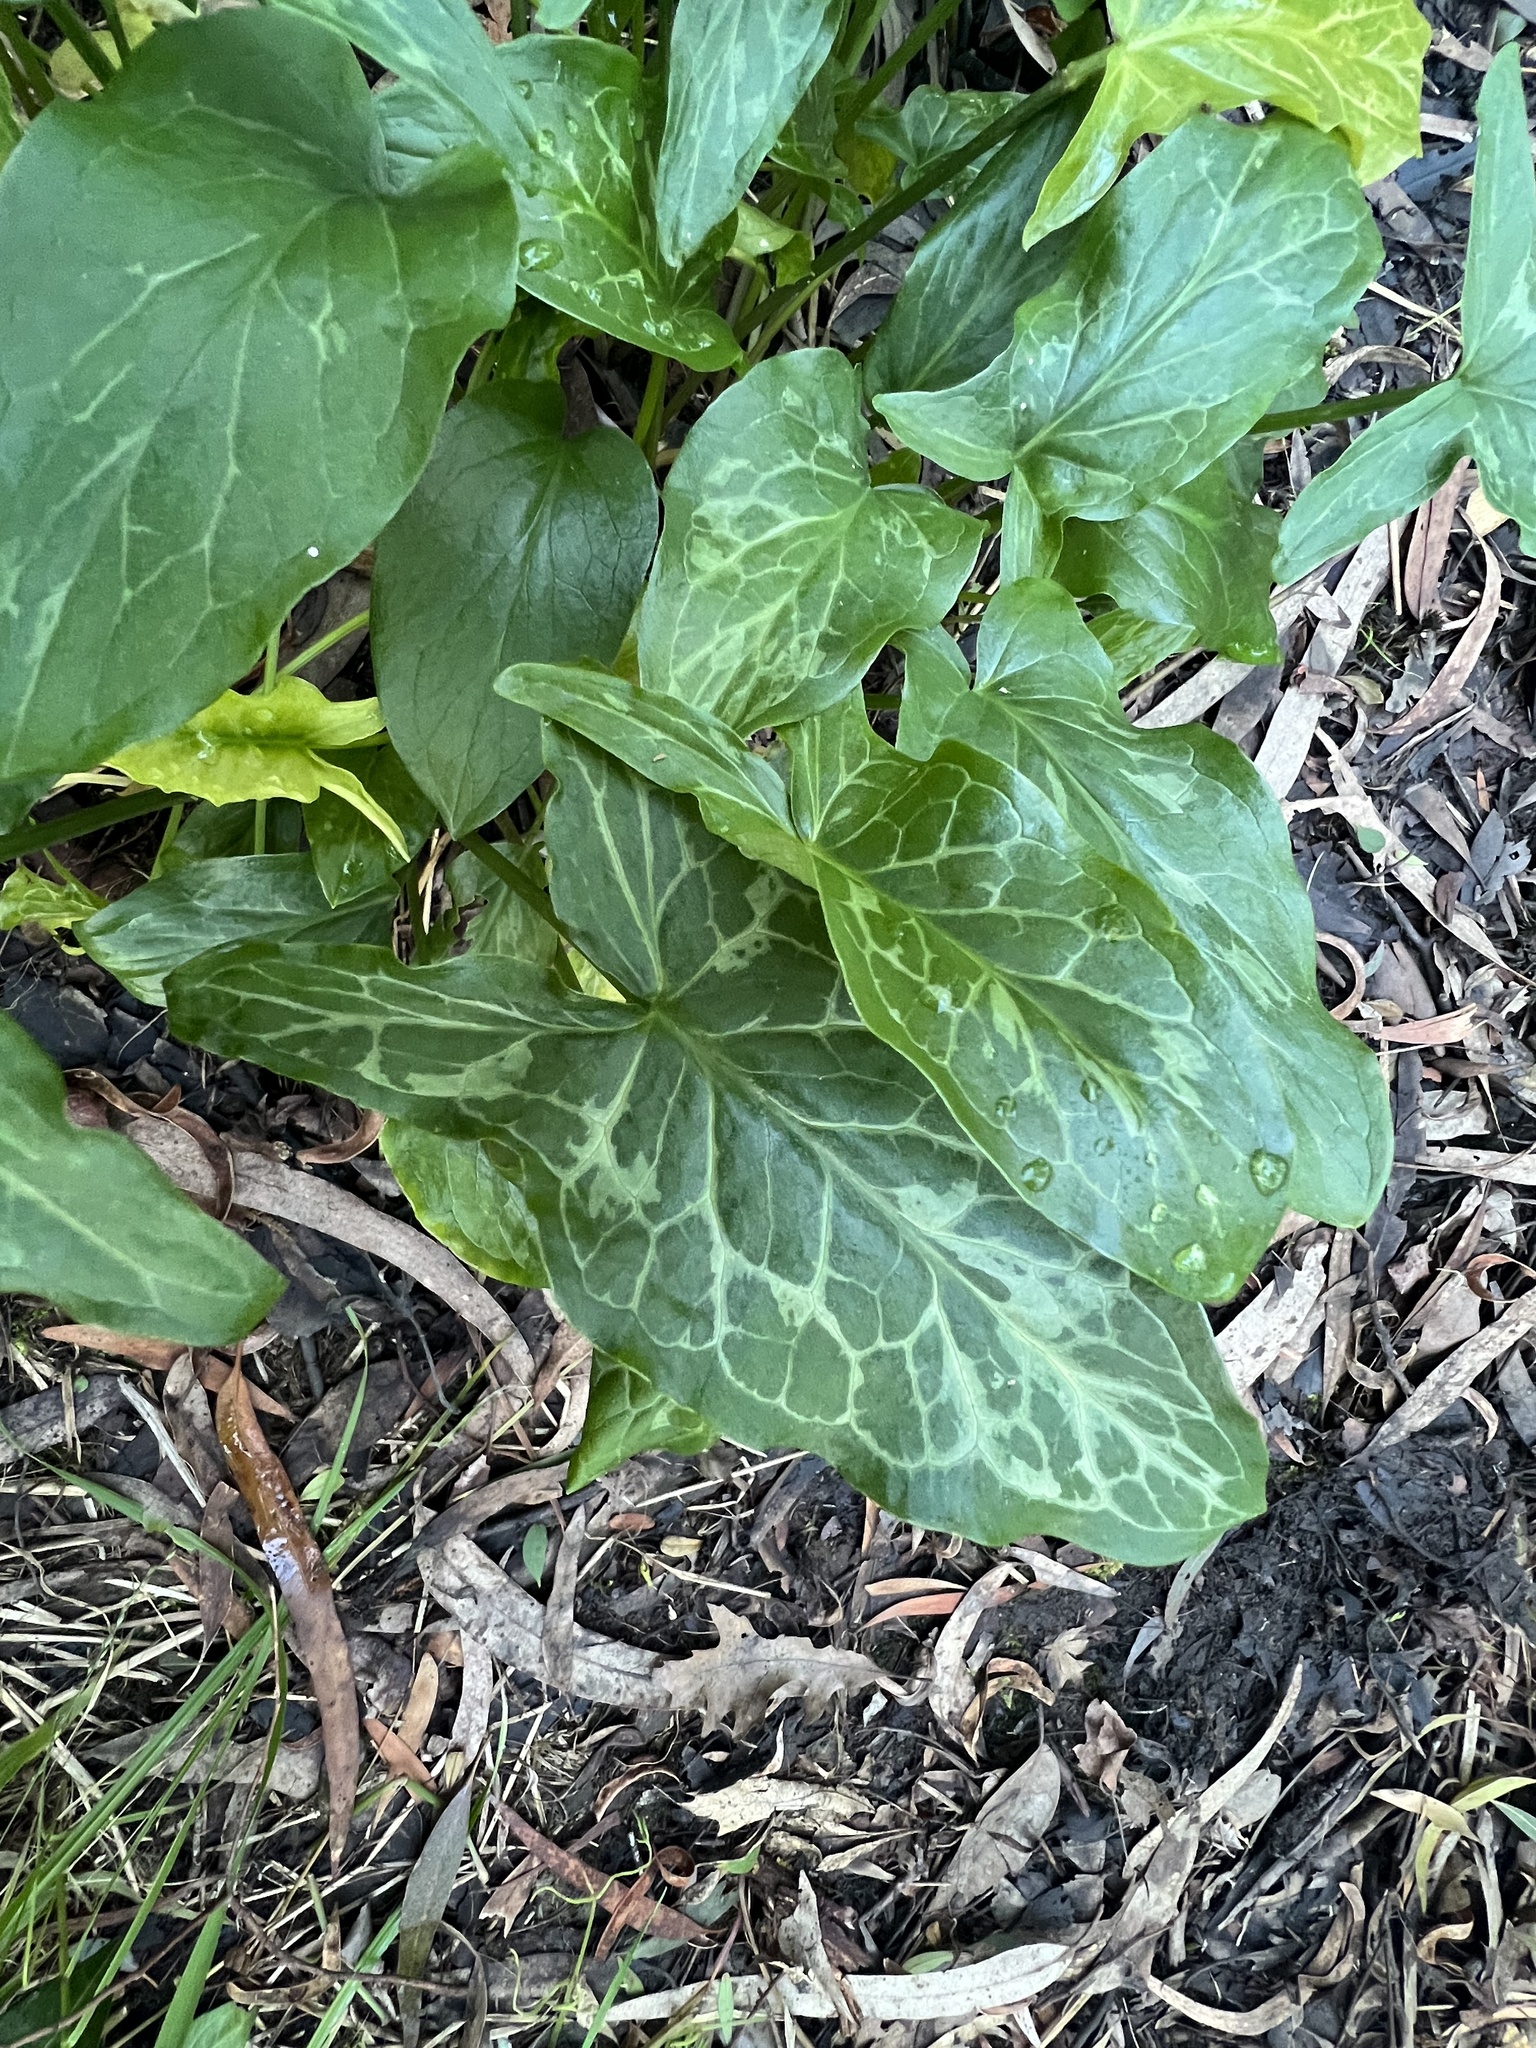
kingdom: Plantae
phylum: Tracheophyta
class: Liliopsida
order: Alismatales
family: Araceae
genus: Arum
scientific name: Arum italicum
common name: Italian lords-and-ladies
